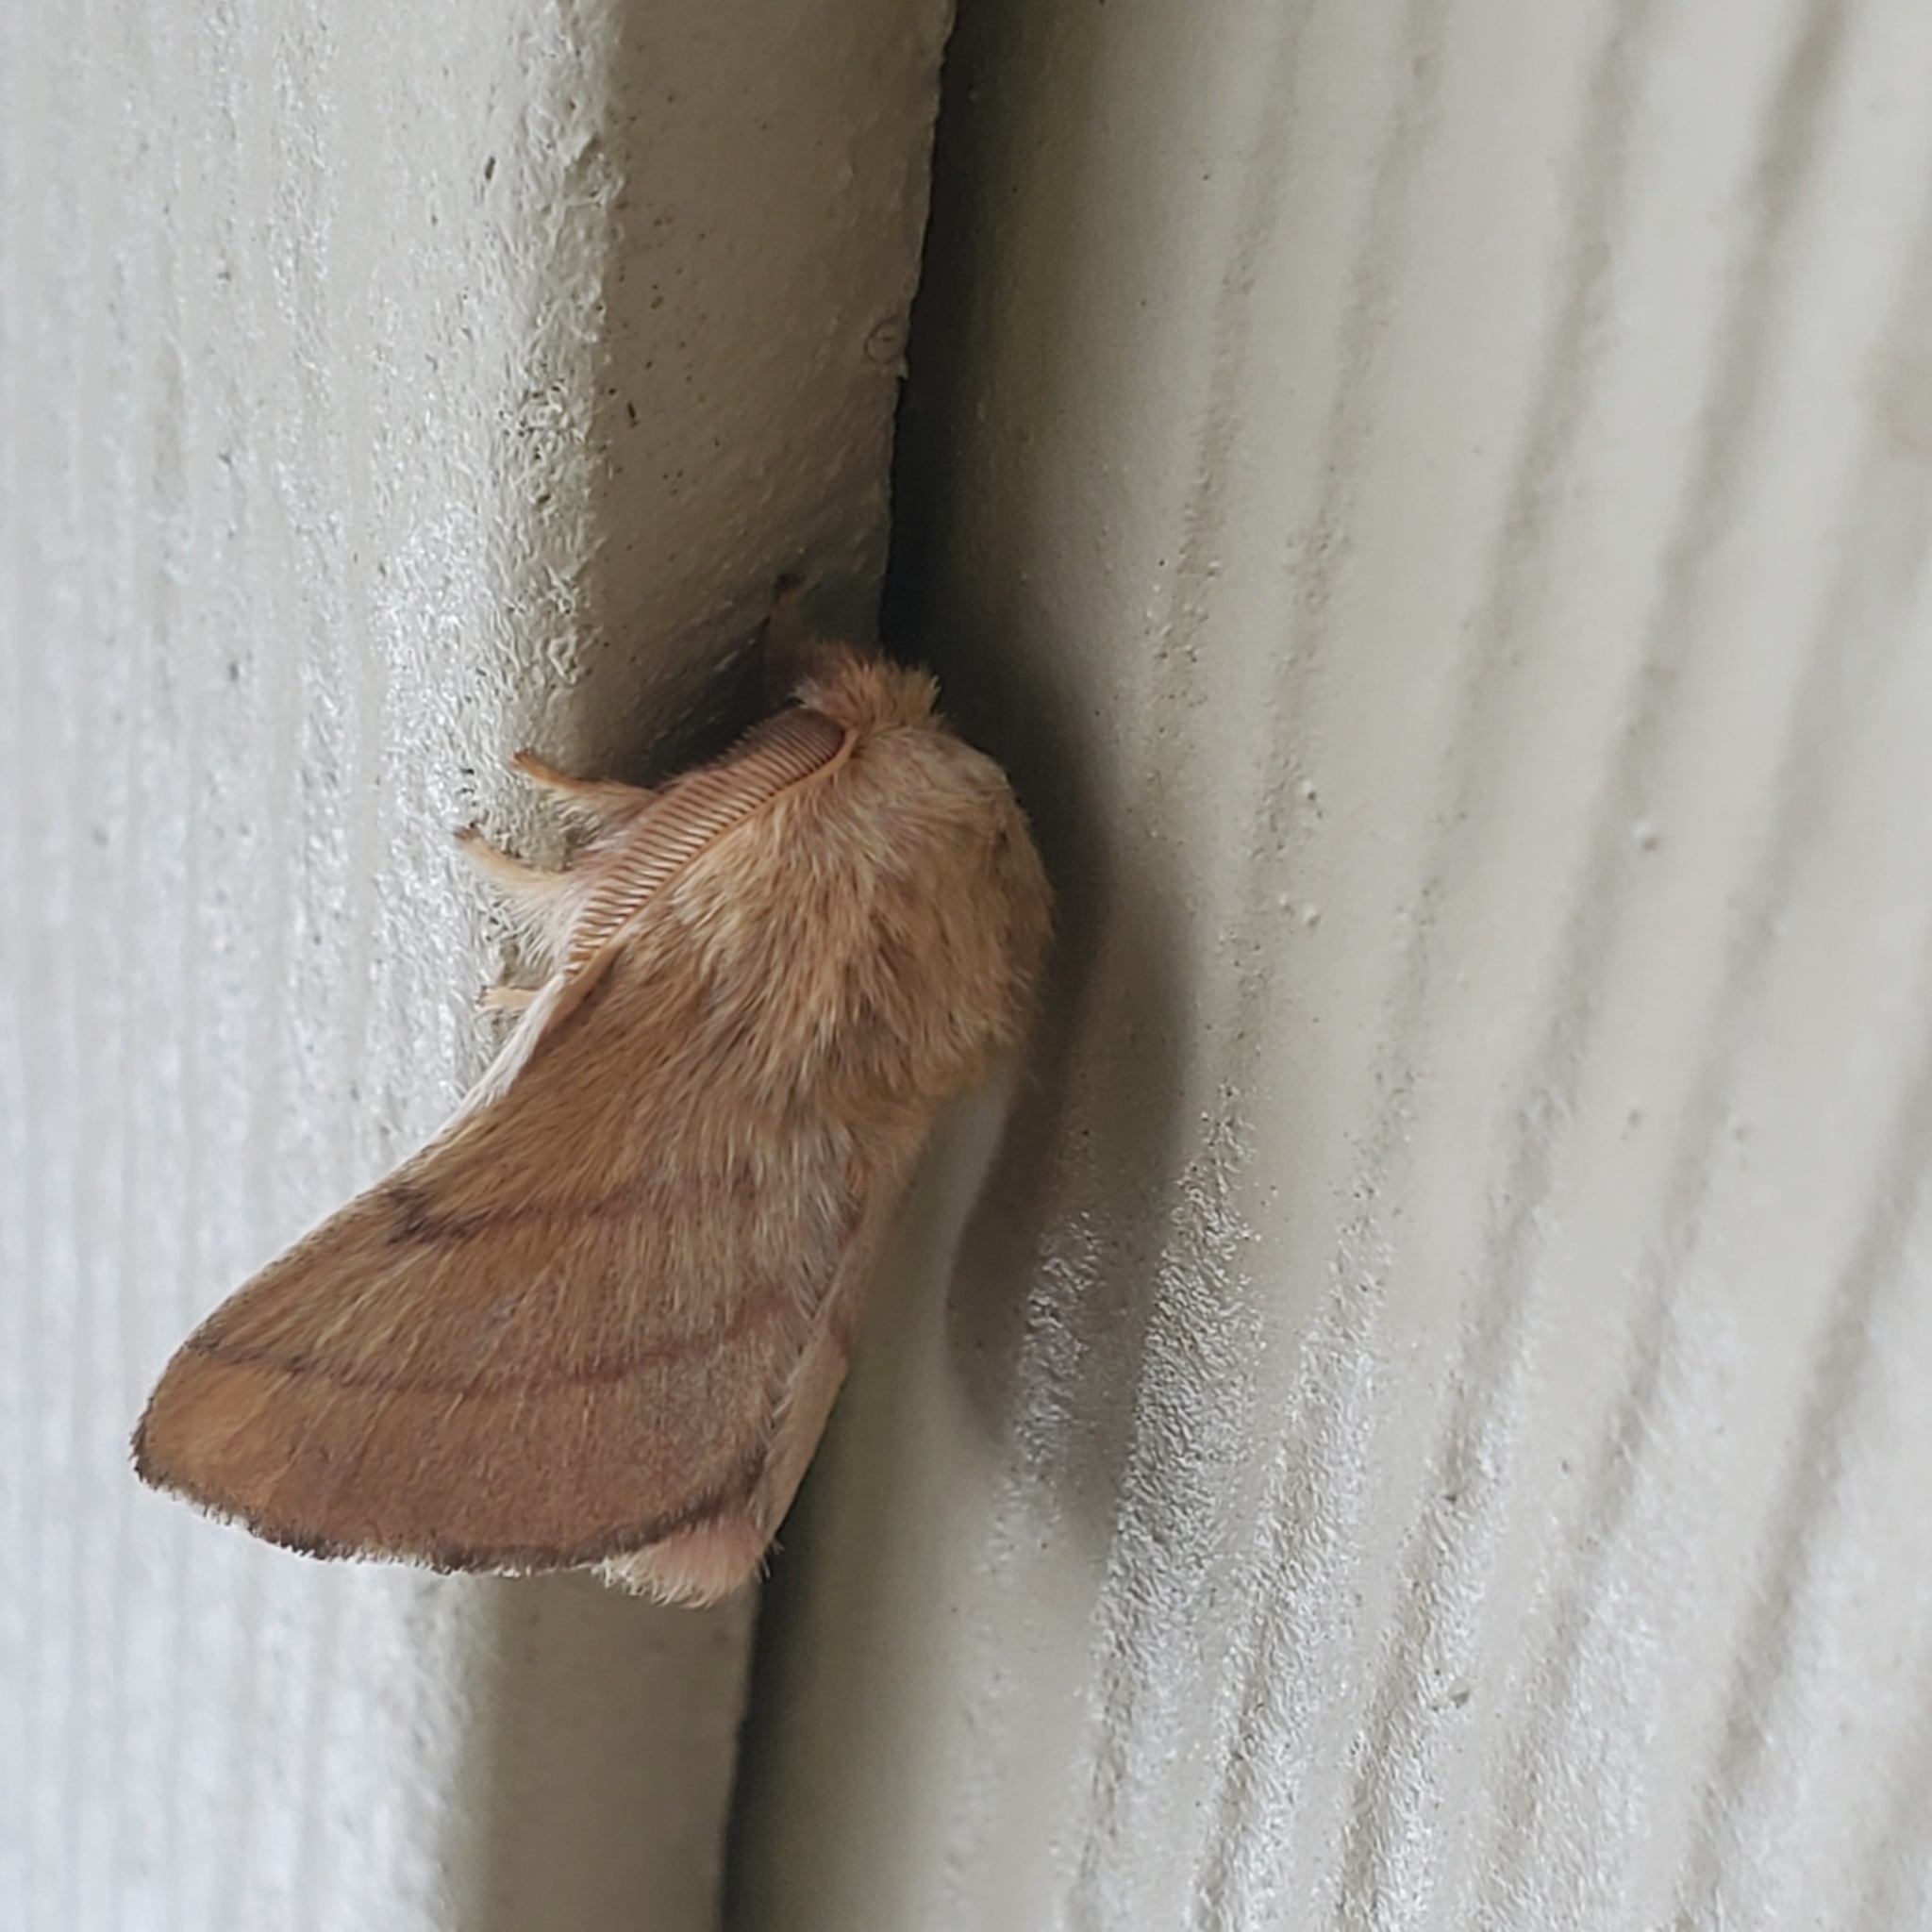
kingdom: Animalia
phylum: Arthropoda
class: Insecta
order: Lepidoptera
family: Lasiocampidae
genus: Malacosoma
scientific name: Malacosoma disstria
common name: Forest tent caterpillar
